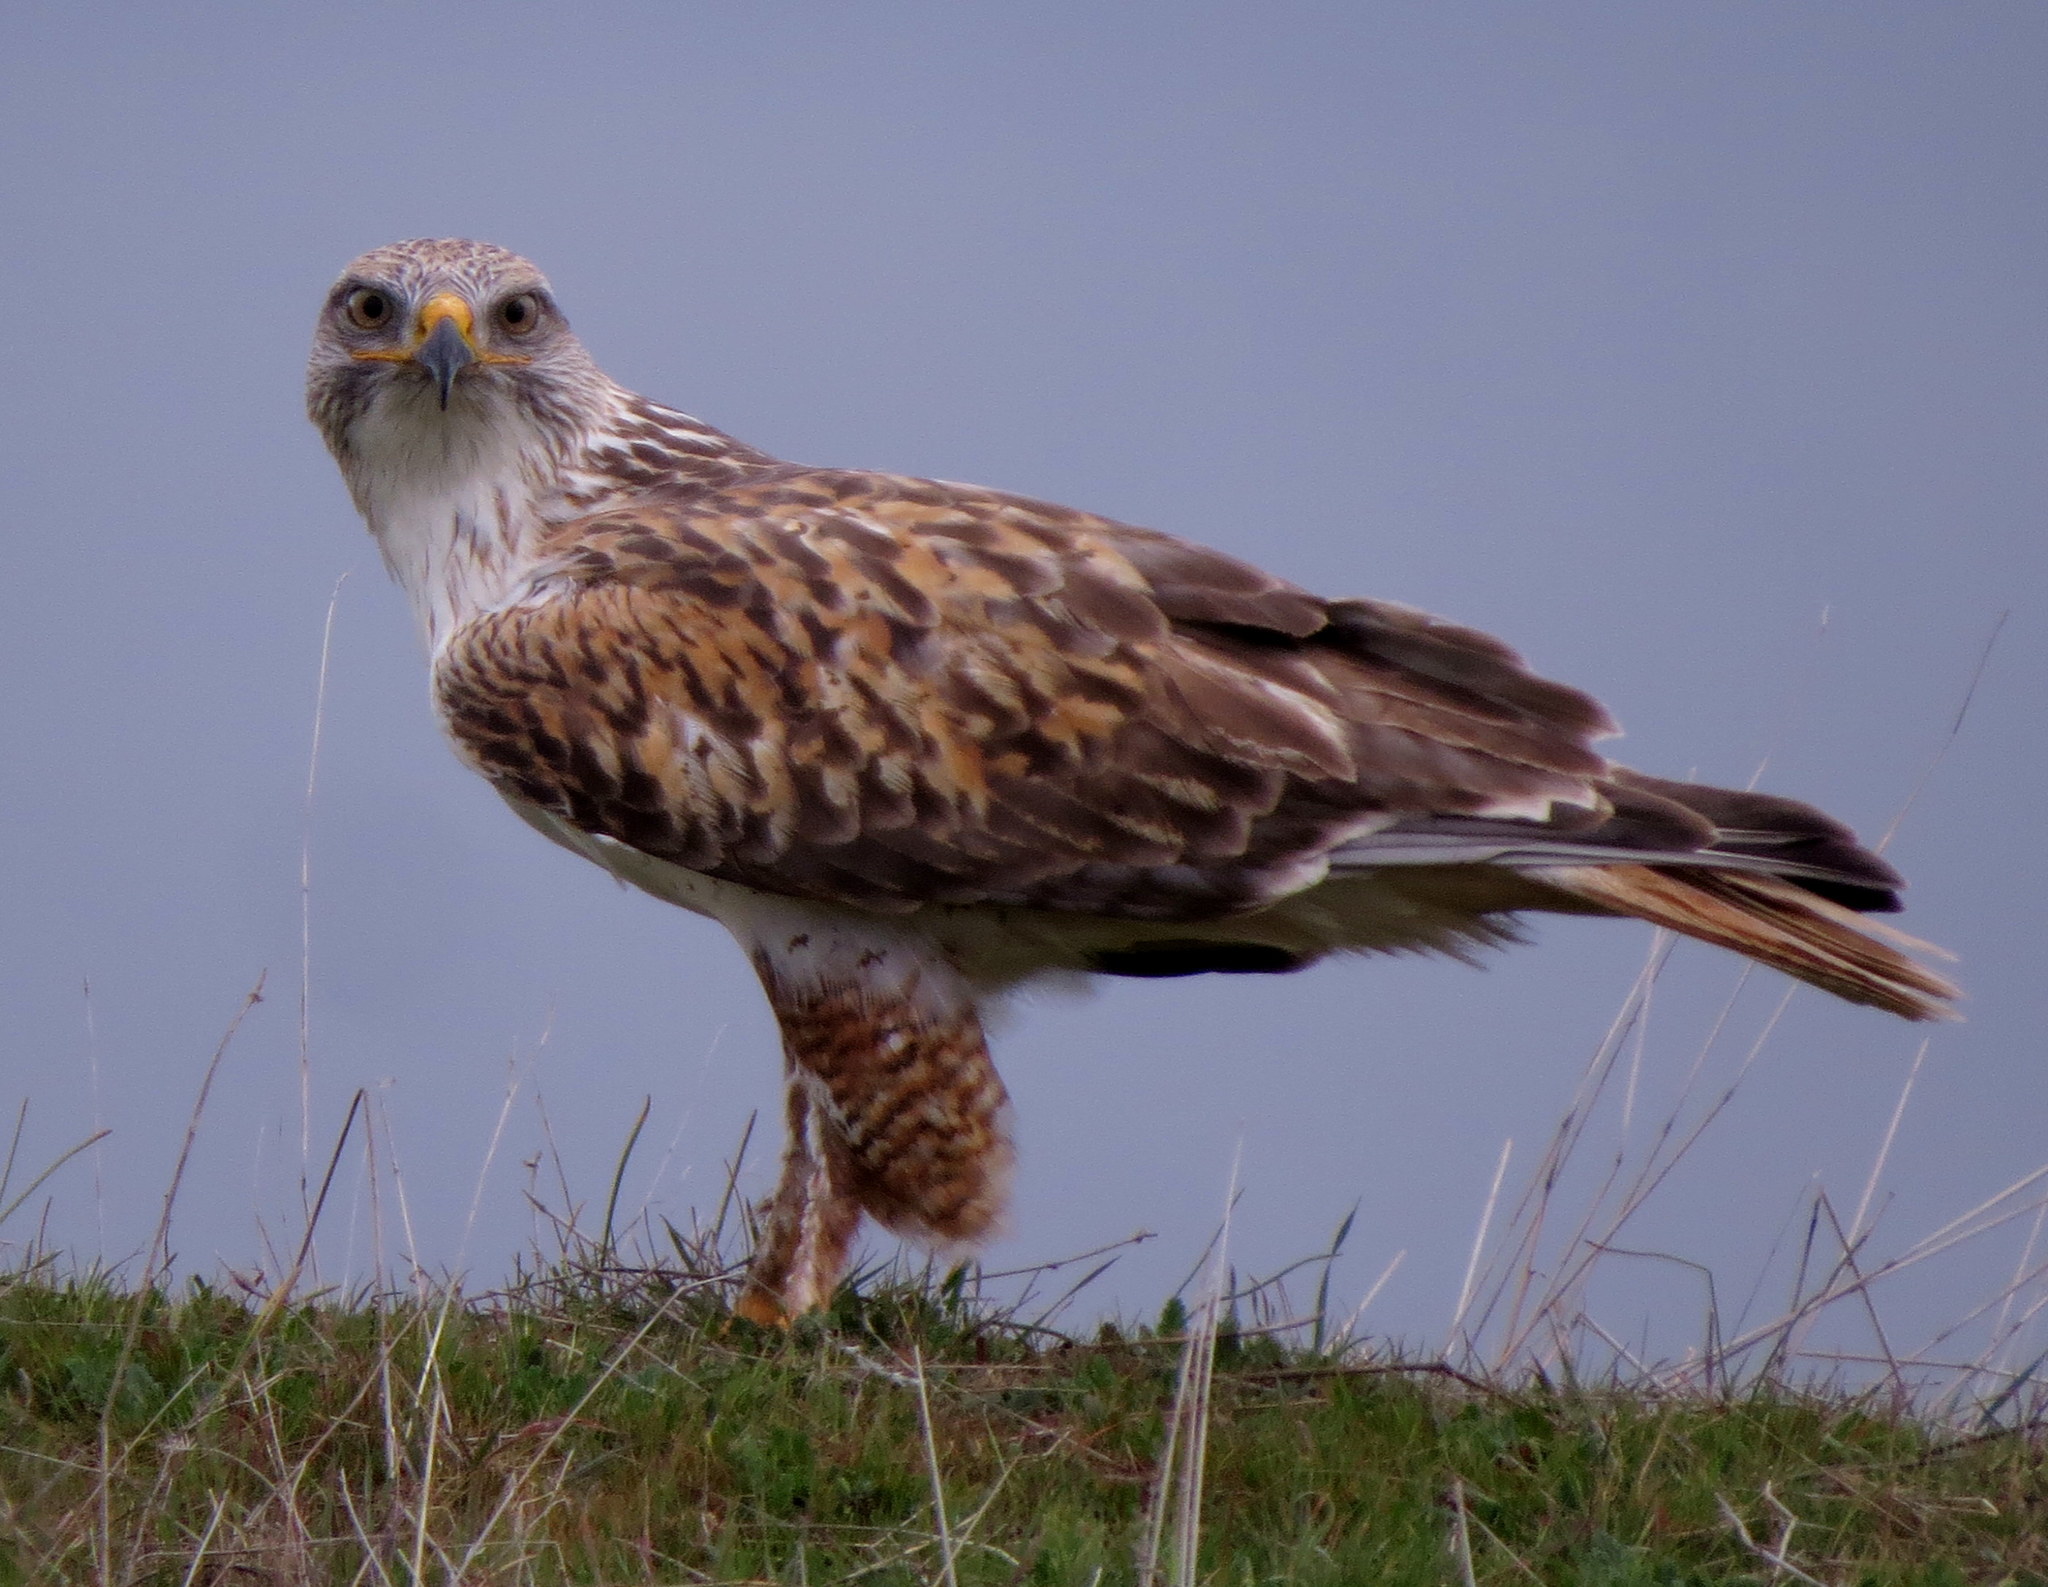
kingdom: Animalia
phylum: Chordata
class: Aves
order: Accipitriformes
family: Accipitridae
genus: Buteo
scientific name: Buteo regalis
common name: Ferruginous hawk
